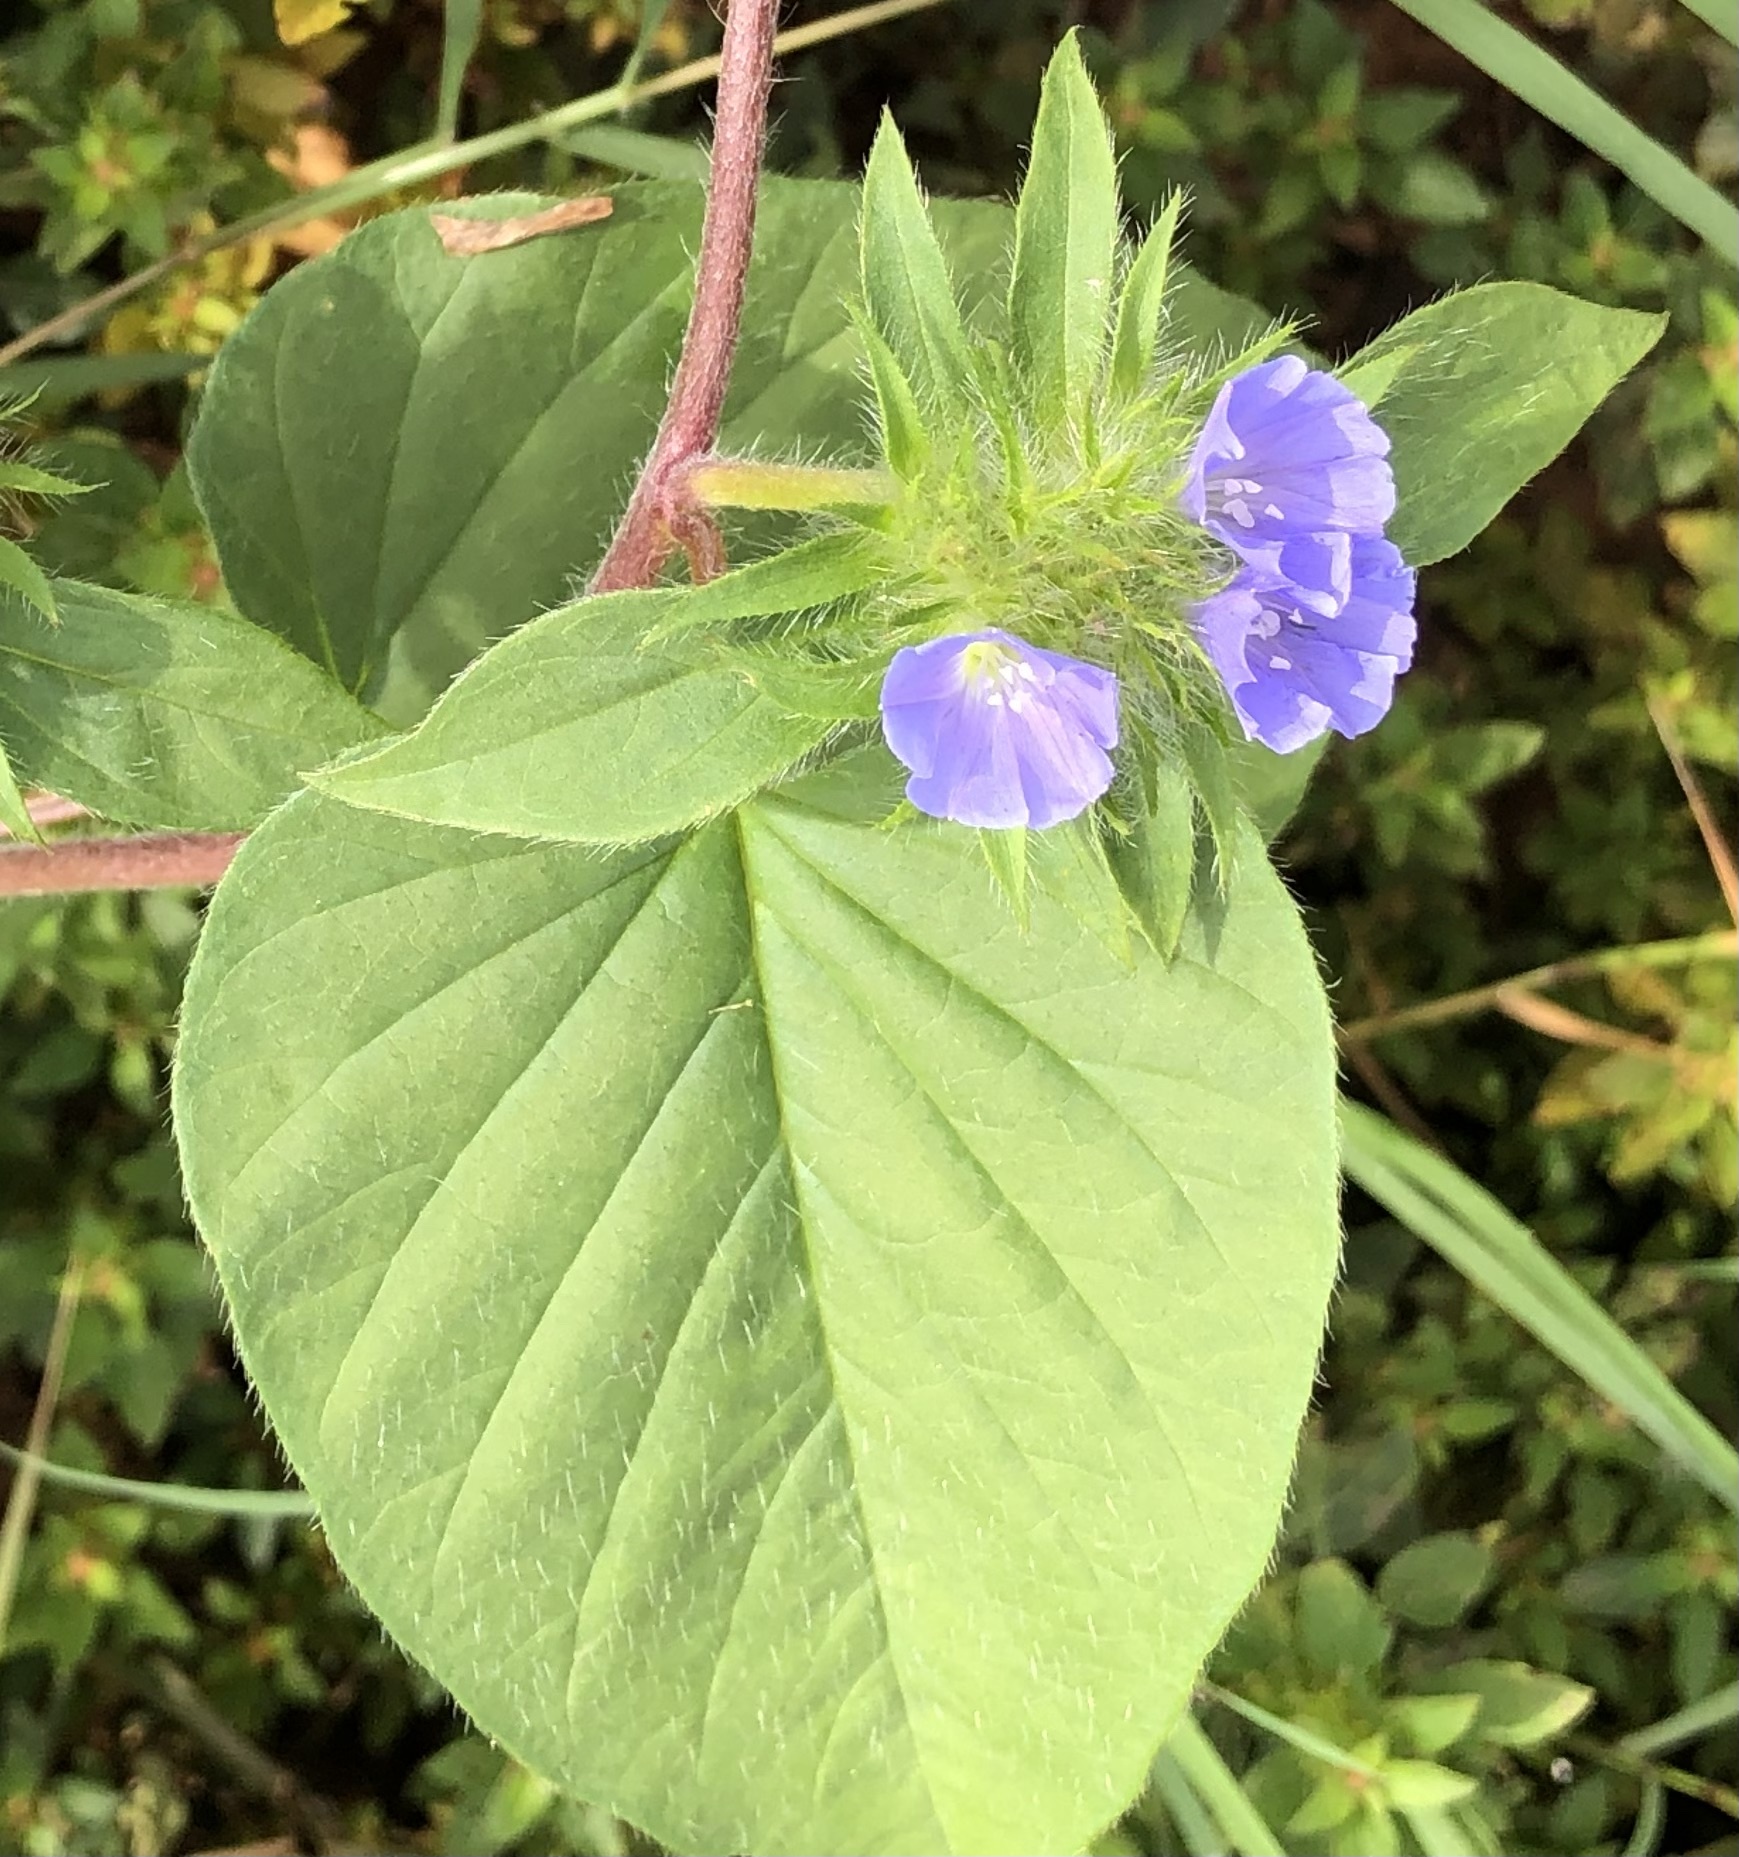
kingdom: Plantae
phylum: Tracheophyta
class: Magnoliopsida
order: Solanales
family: Convolvulaceae
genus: Jacquemontia
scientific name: Jacquemontia tamnifolia
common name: Hairy clustervine
